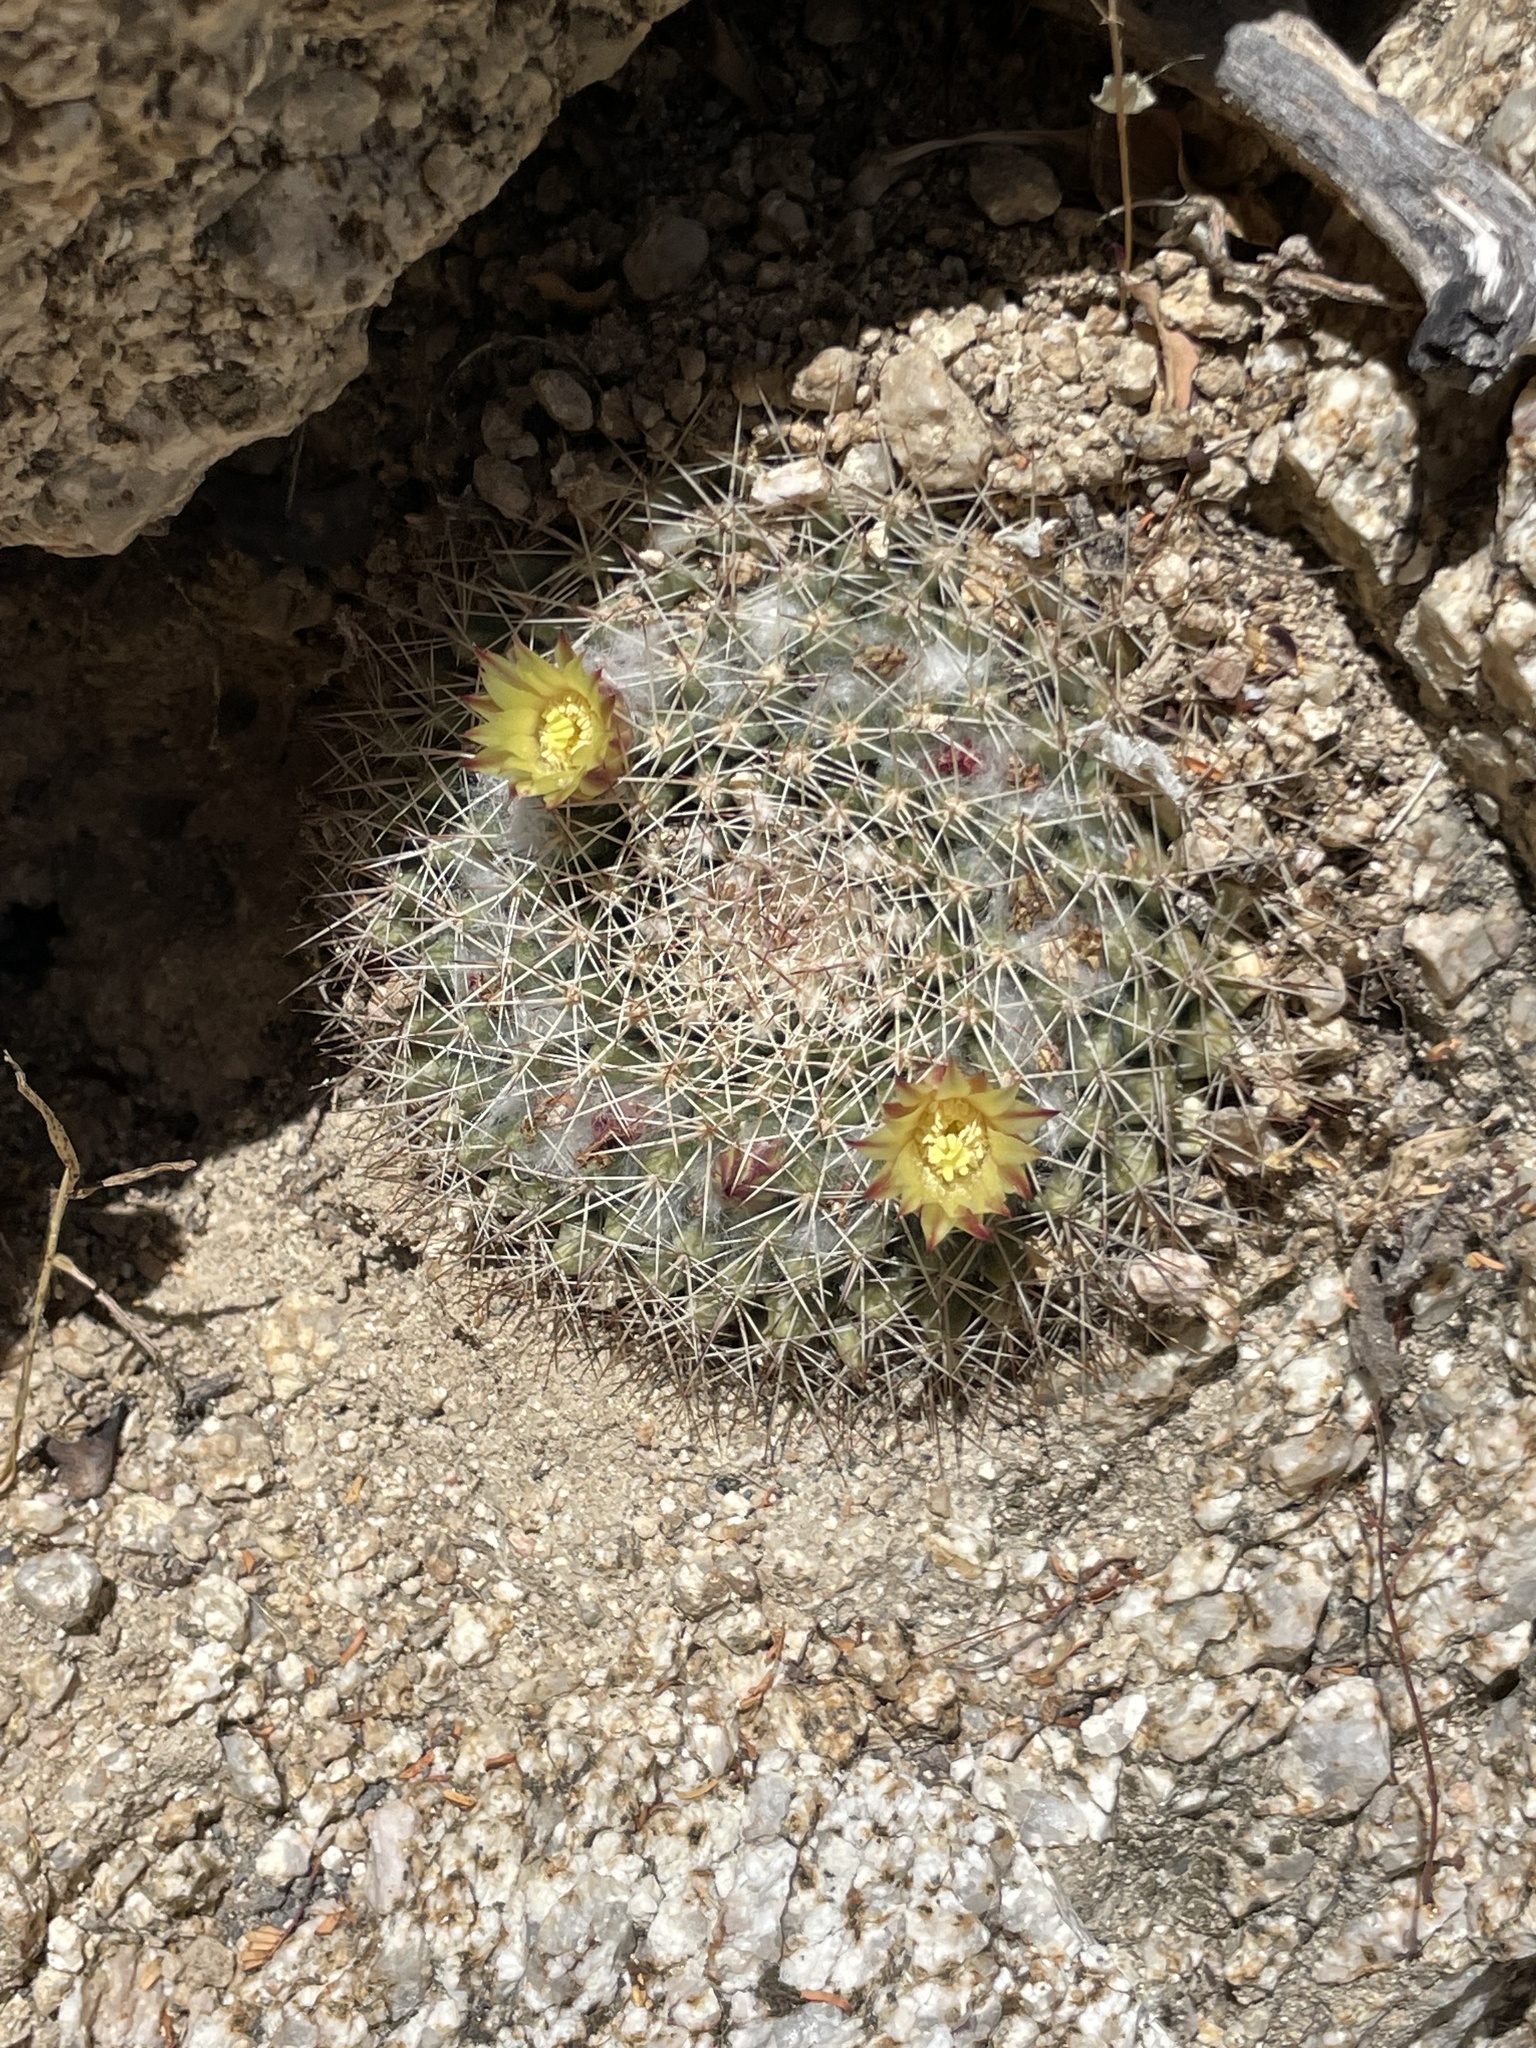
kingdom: Plantae
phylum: Tracheophyta
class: Magnoliopsida
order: Caryophyllales
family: Cactaceae
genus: Mammillaria
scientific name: Mammillaria petrophila
